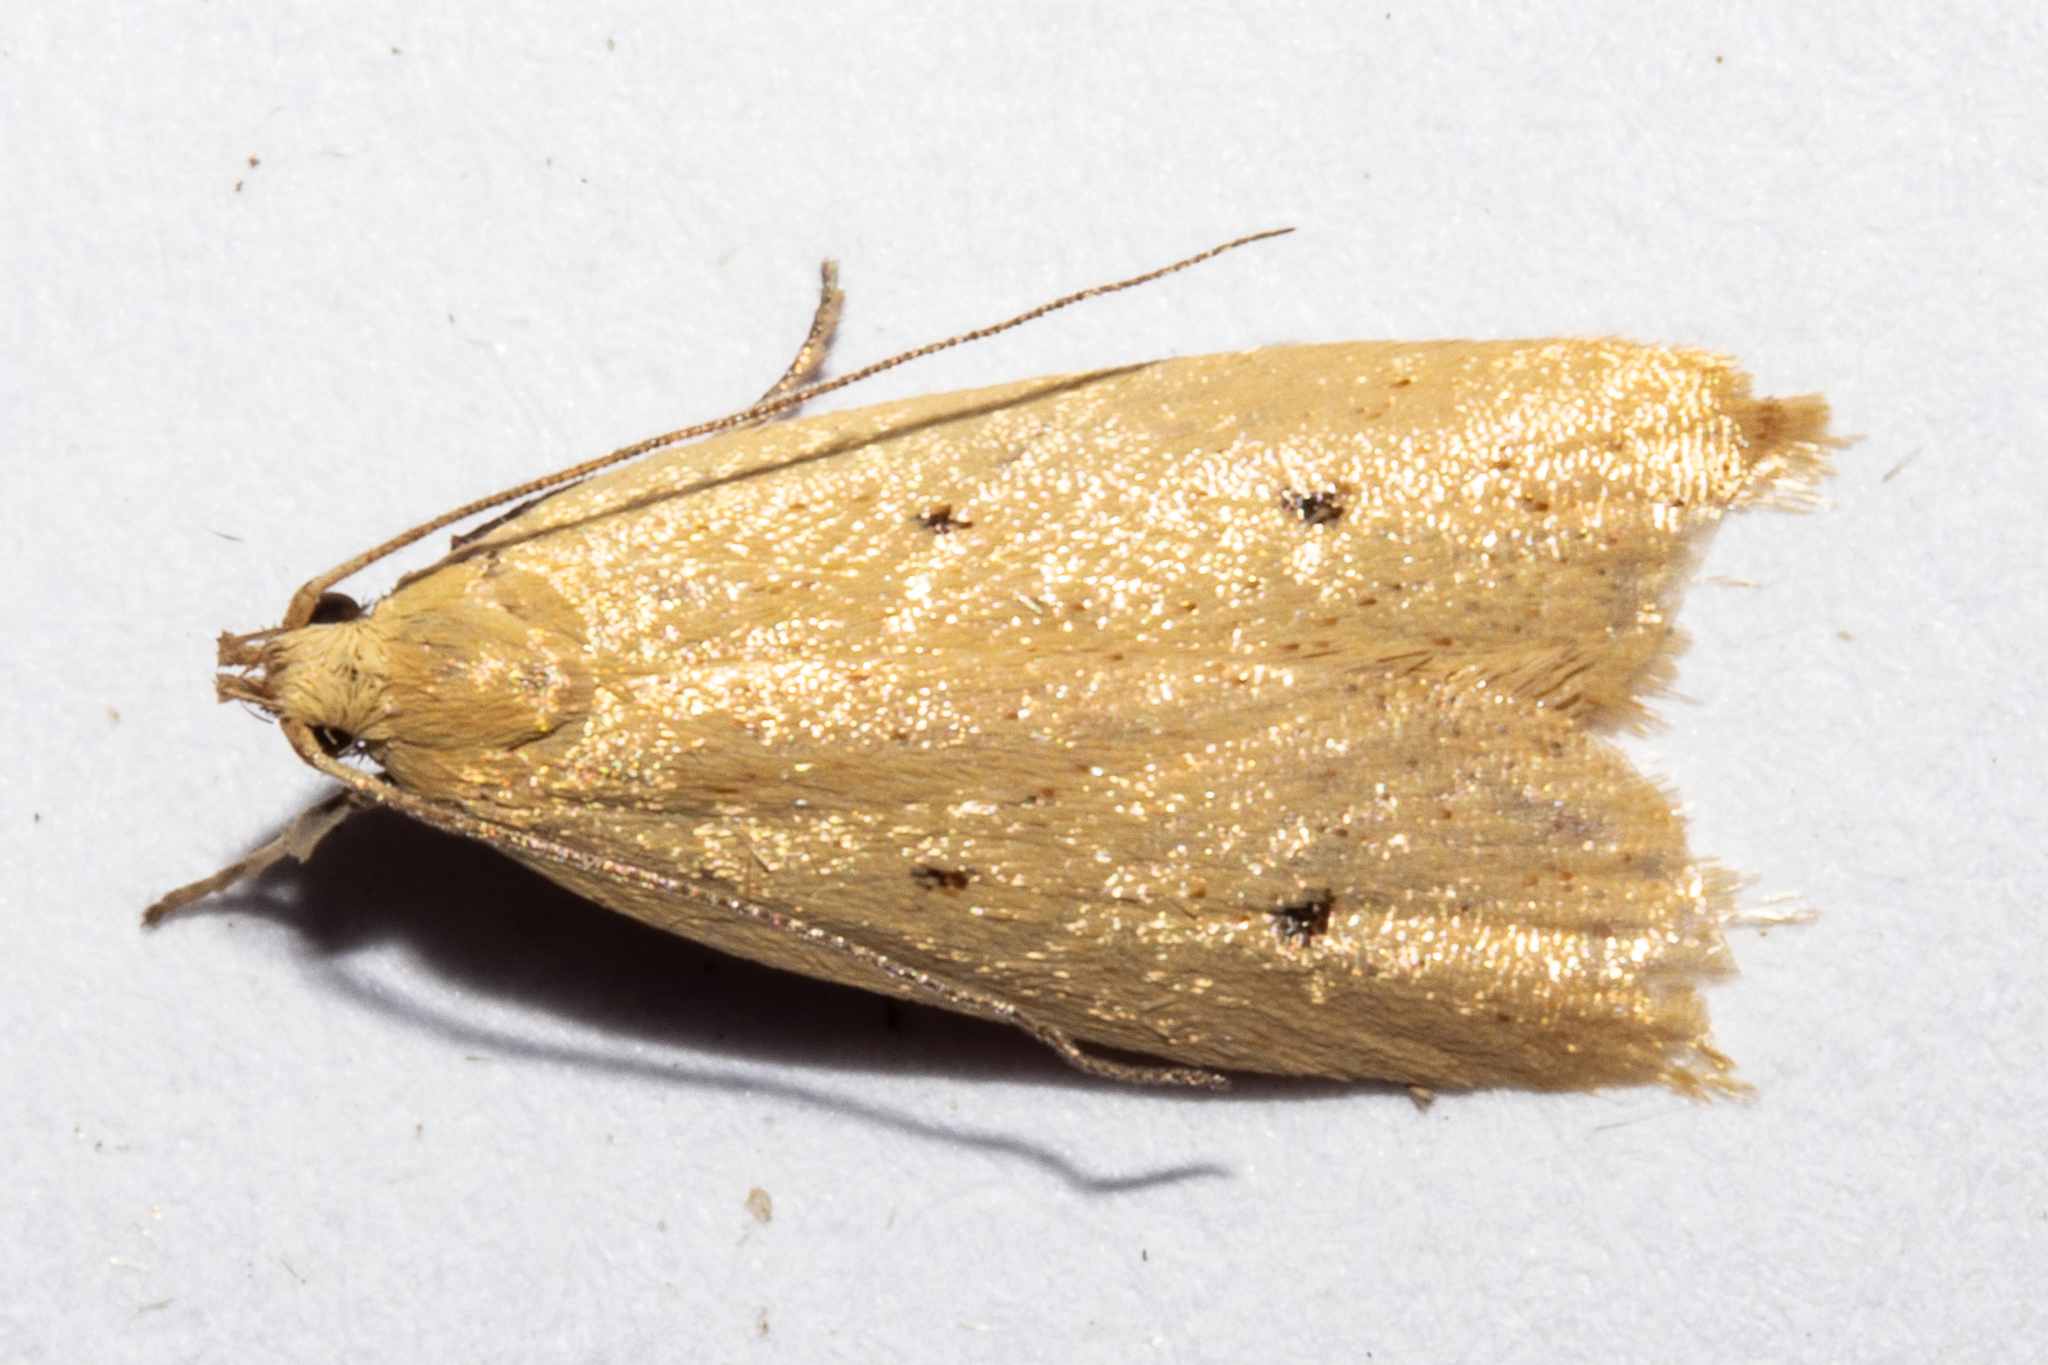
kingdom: Animalia
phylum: Arthropoda
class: Insecta
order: Lepidoptera
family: Oecophoridae
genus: Gymnobathra
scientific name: Gymnobathra sarcoxantha
